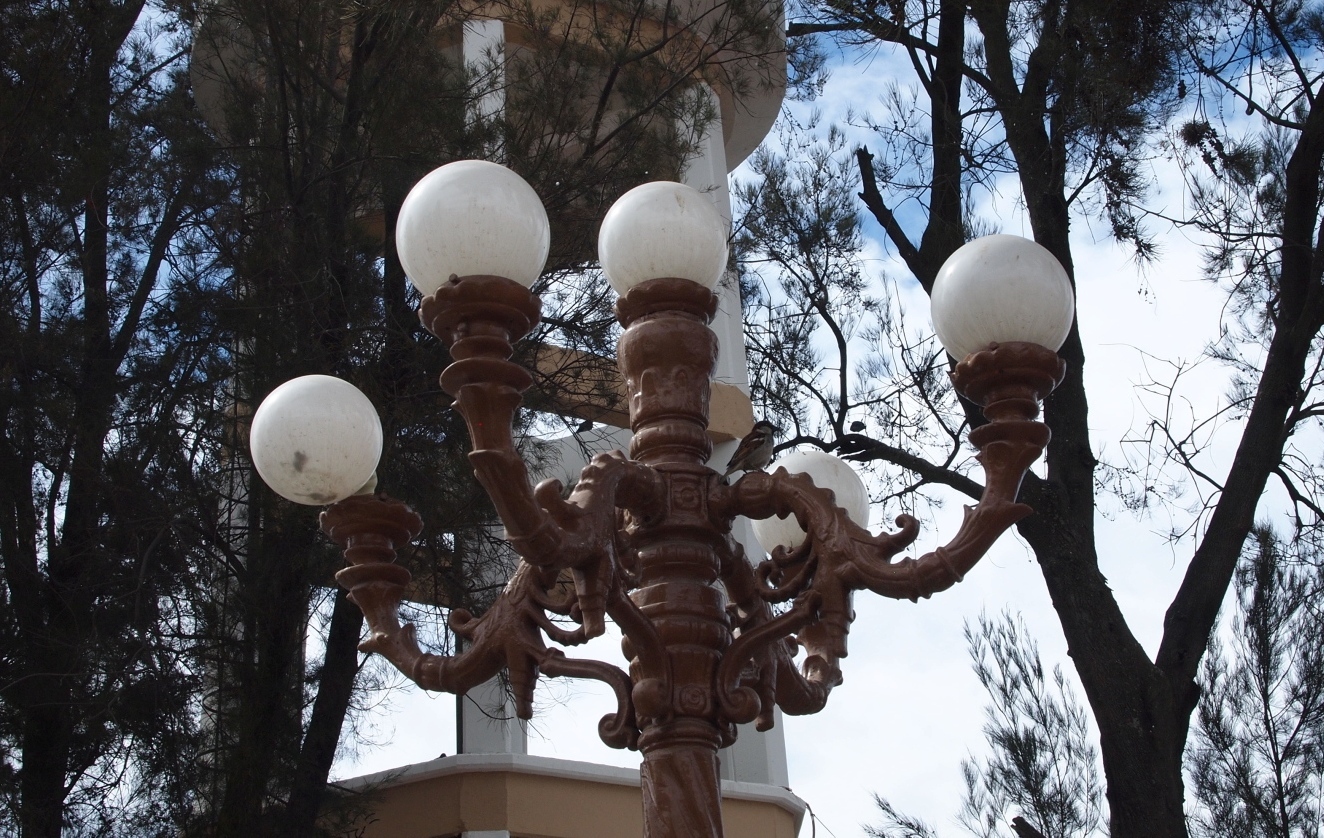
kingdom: Animalia
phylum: Chordata
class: Aves
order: Passeriformes
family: Passeridae
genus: Passer
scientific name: Passer domesticus
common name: House sparrow
